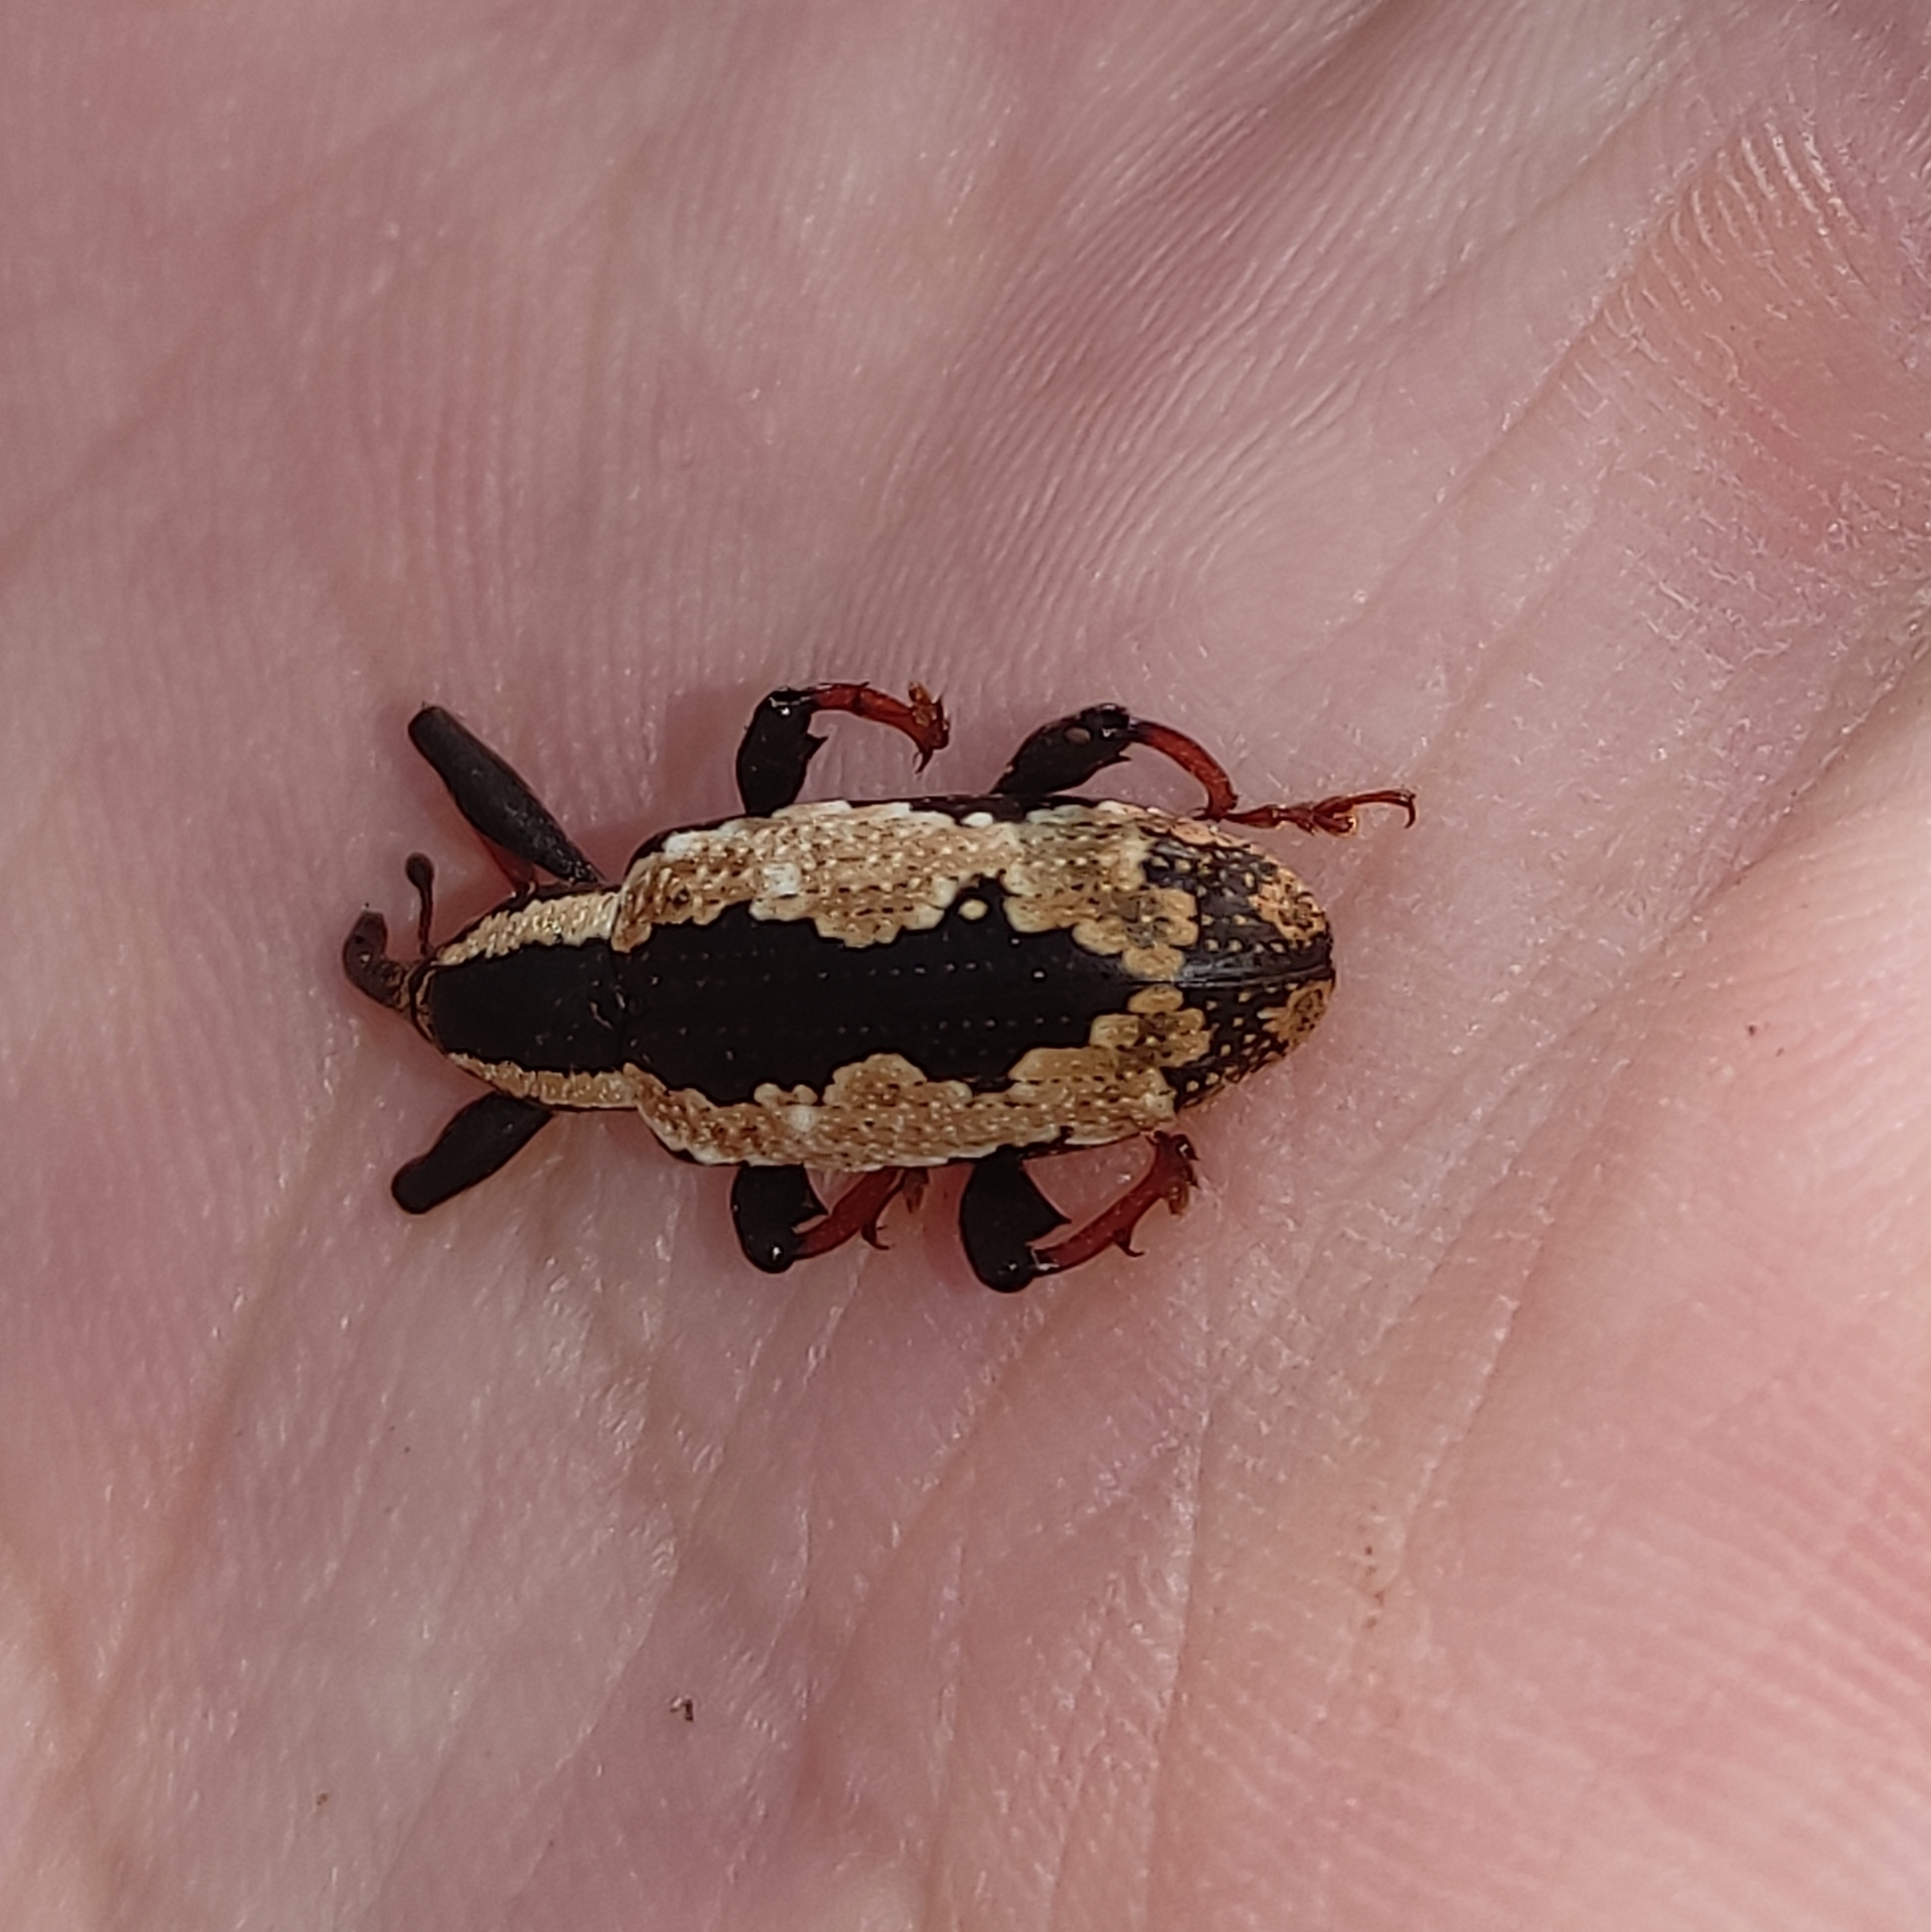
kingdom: Animalia
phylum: Arthropoda
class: Insecta
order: Coleoptera
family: Curculionidae
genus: Heilipus
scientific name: Heilipus catagraphus
